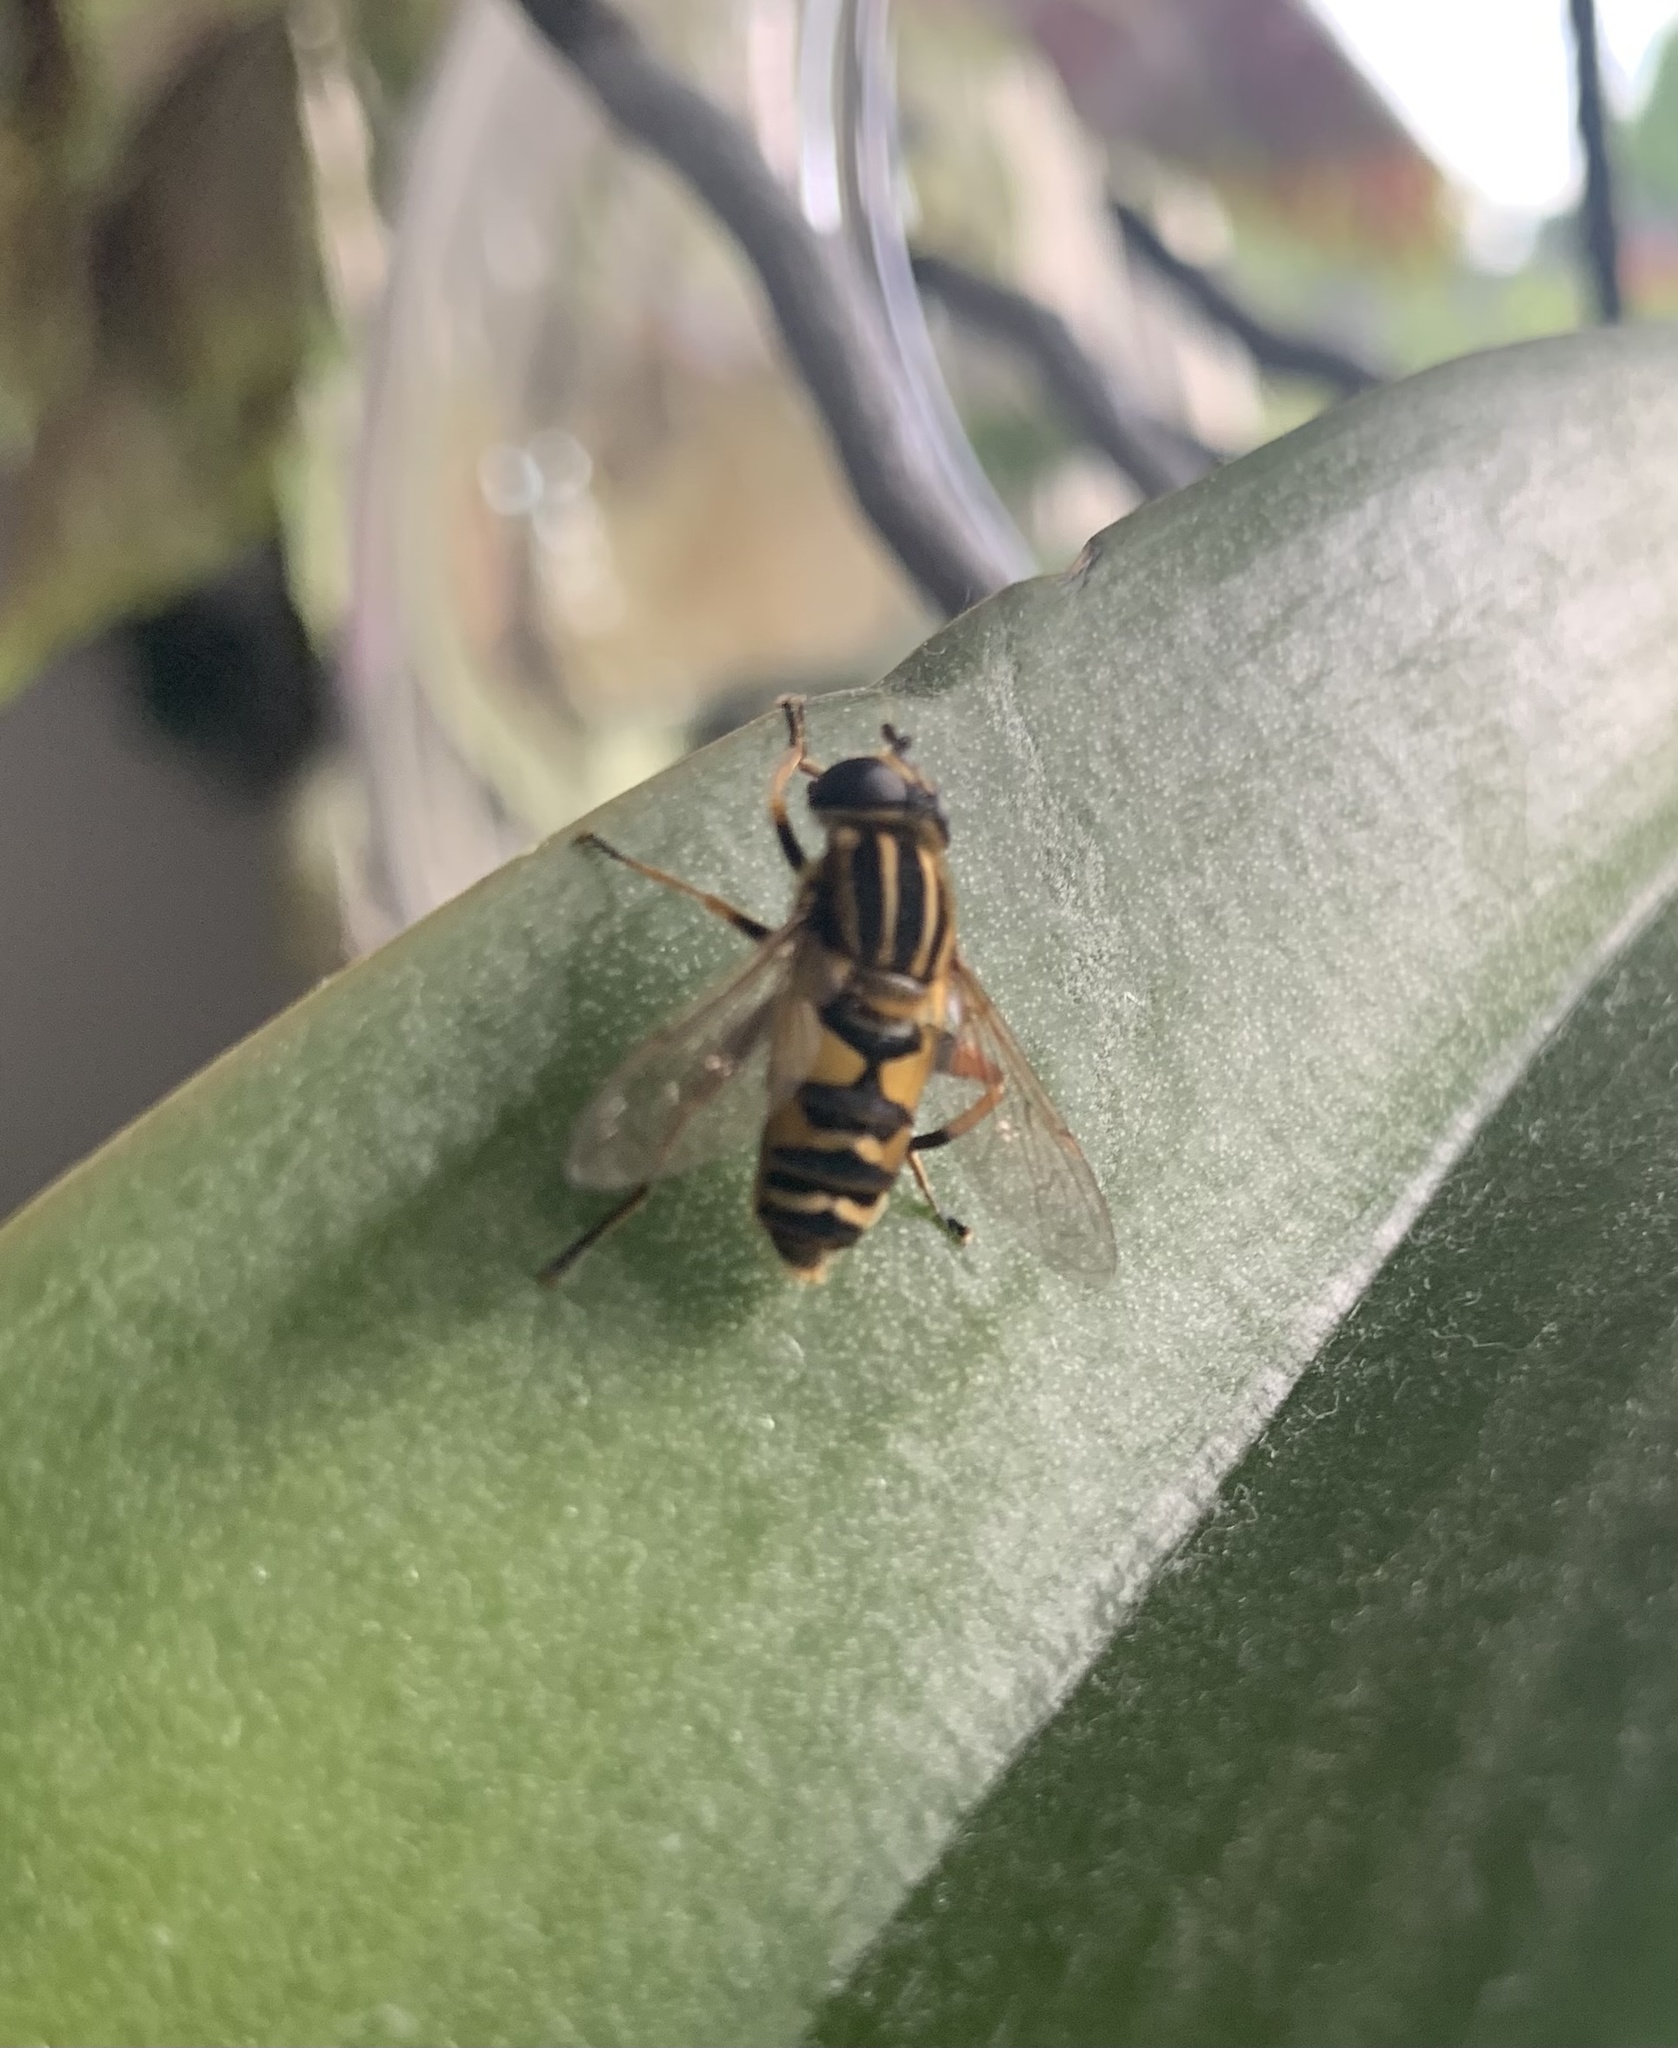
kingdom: Animalia
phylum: Arthropoda
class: Insecta
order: Diptera
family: Syrphidae
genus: Helophilus
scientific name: Helophilus pendulus
